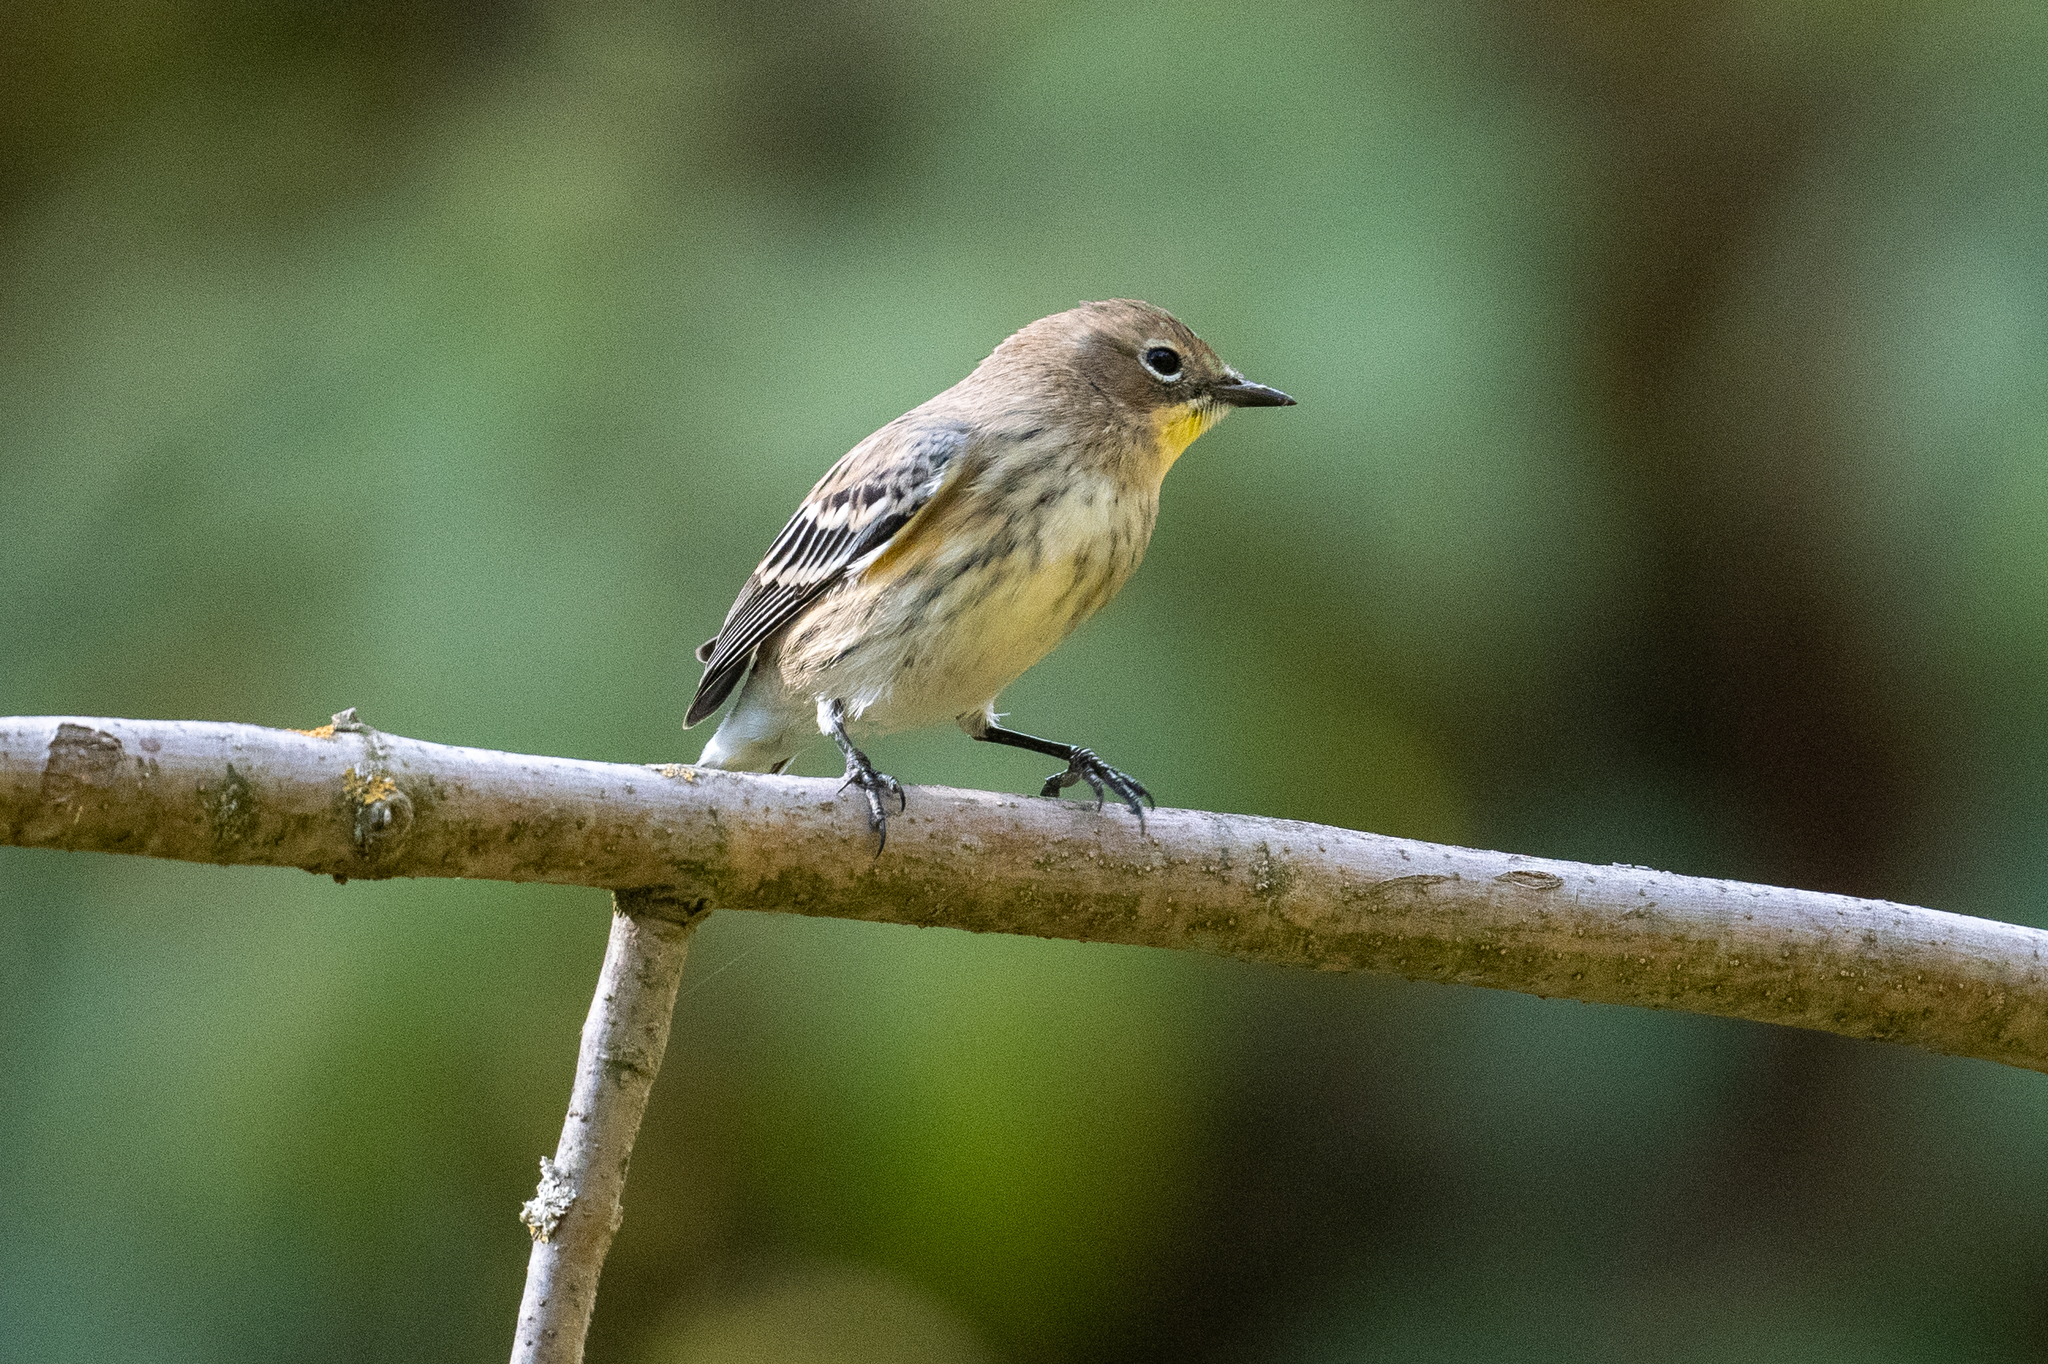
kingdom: Animalia
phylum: Chordata
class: Aves
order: Passeriformes
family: Parulidae
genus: Setophaga
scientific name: Setophaga coronata
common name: Myrtle warbler
